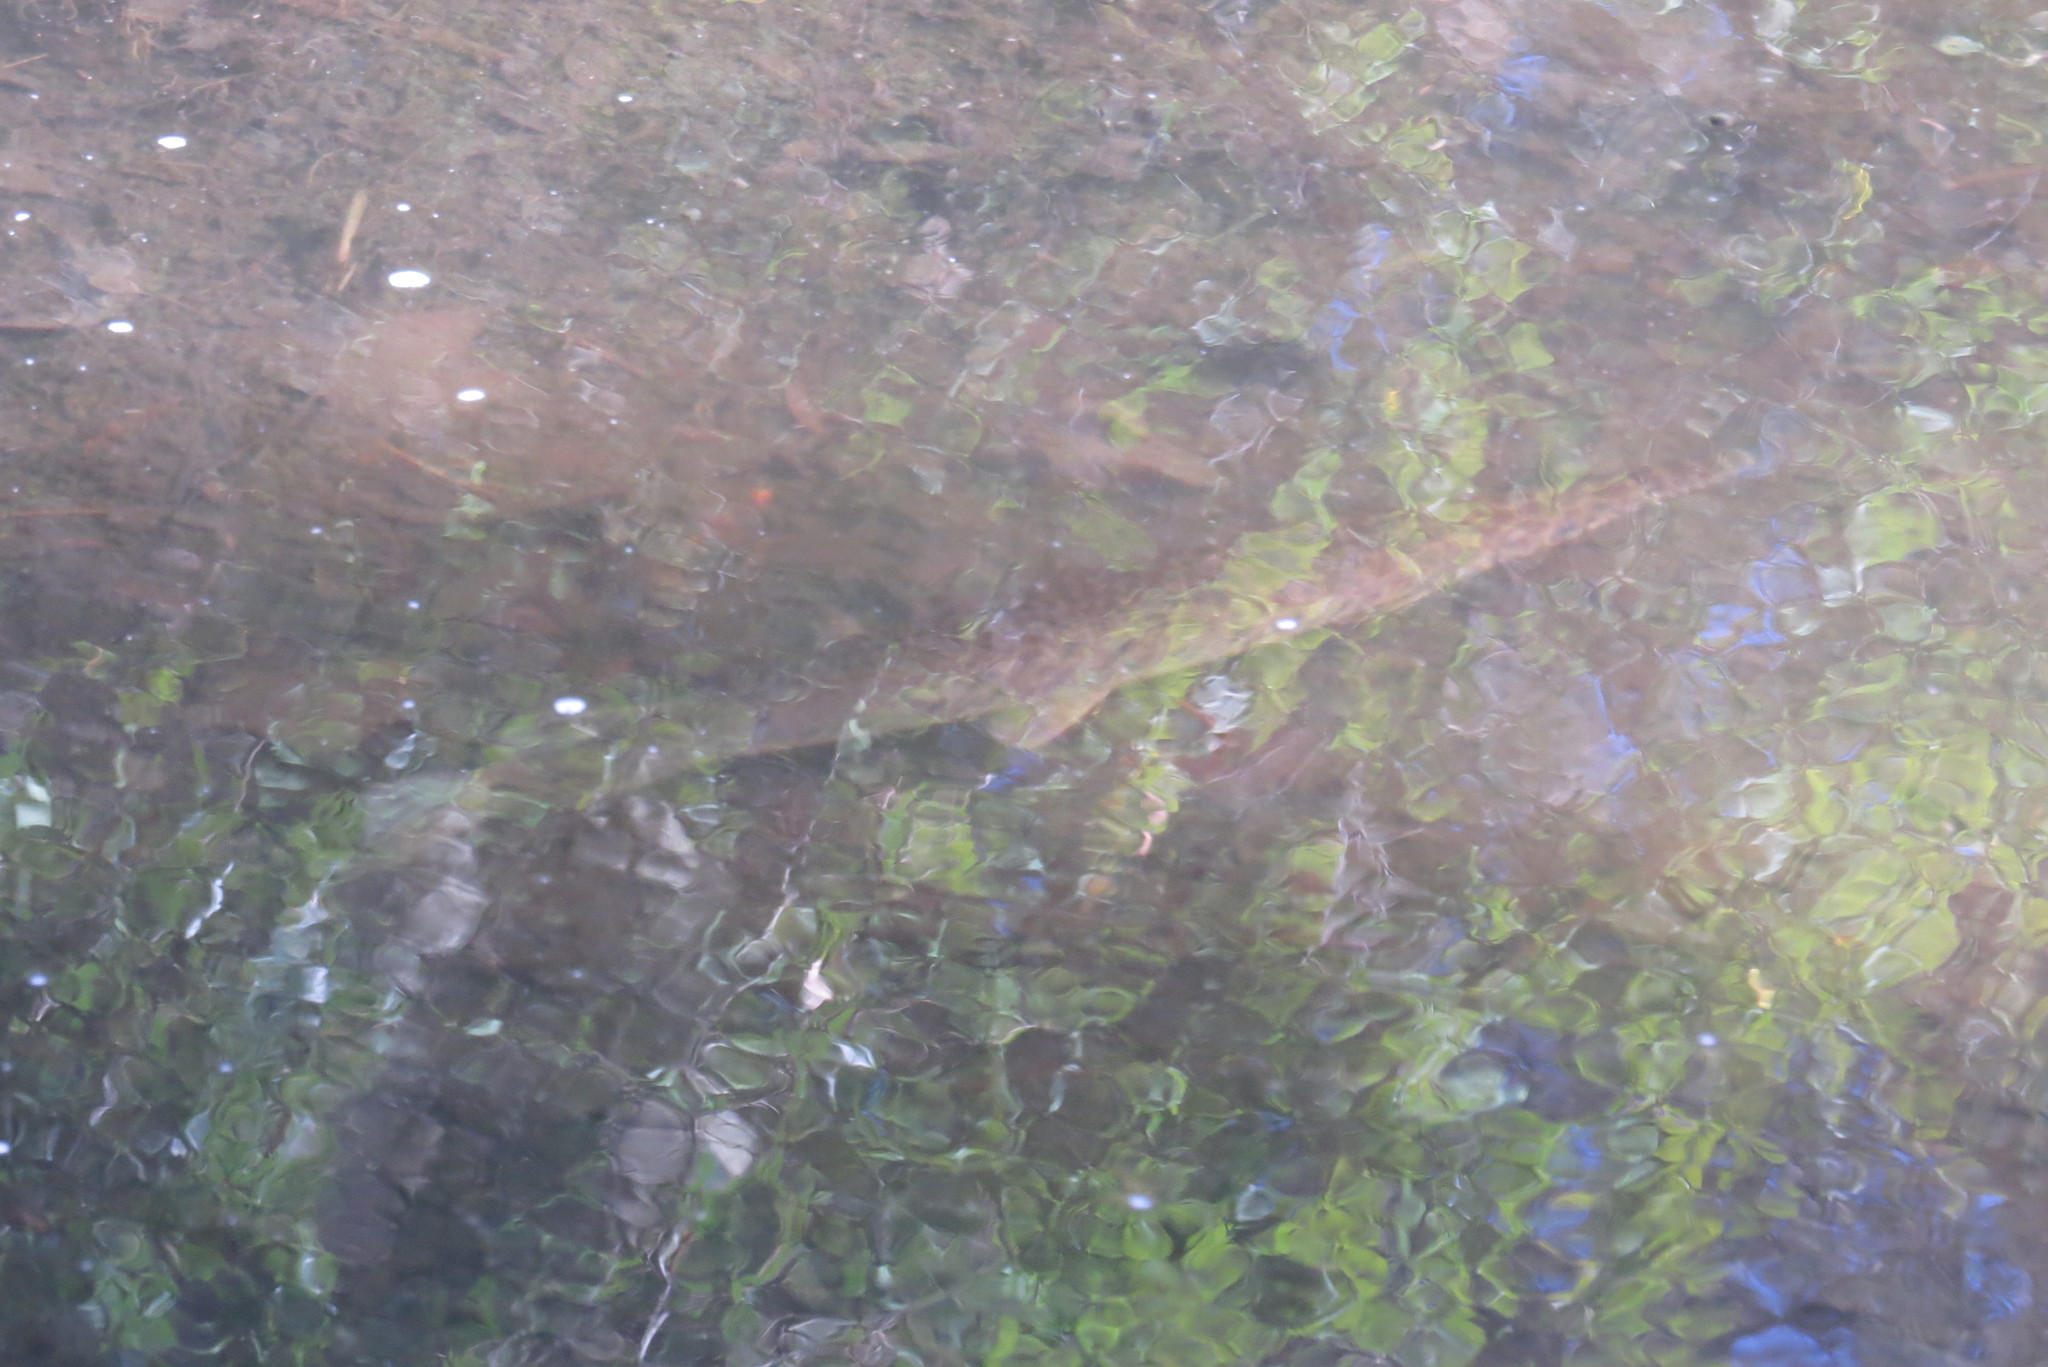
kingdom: Animalia
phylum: Chordata
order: Lepisosteiformes
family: Lepisosteidae
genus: Lepisosteus
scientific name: Lepisosteus platyrhincus
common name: Florida gar
